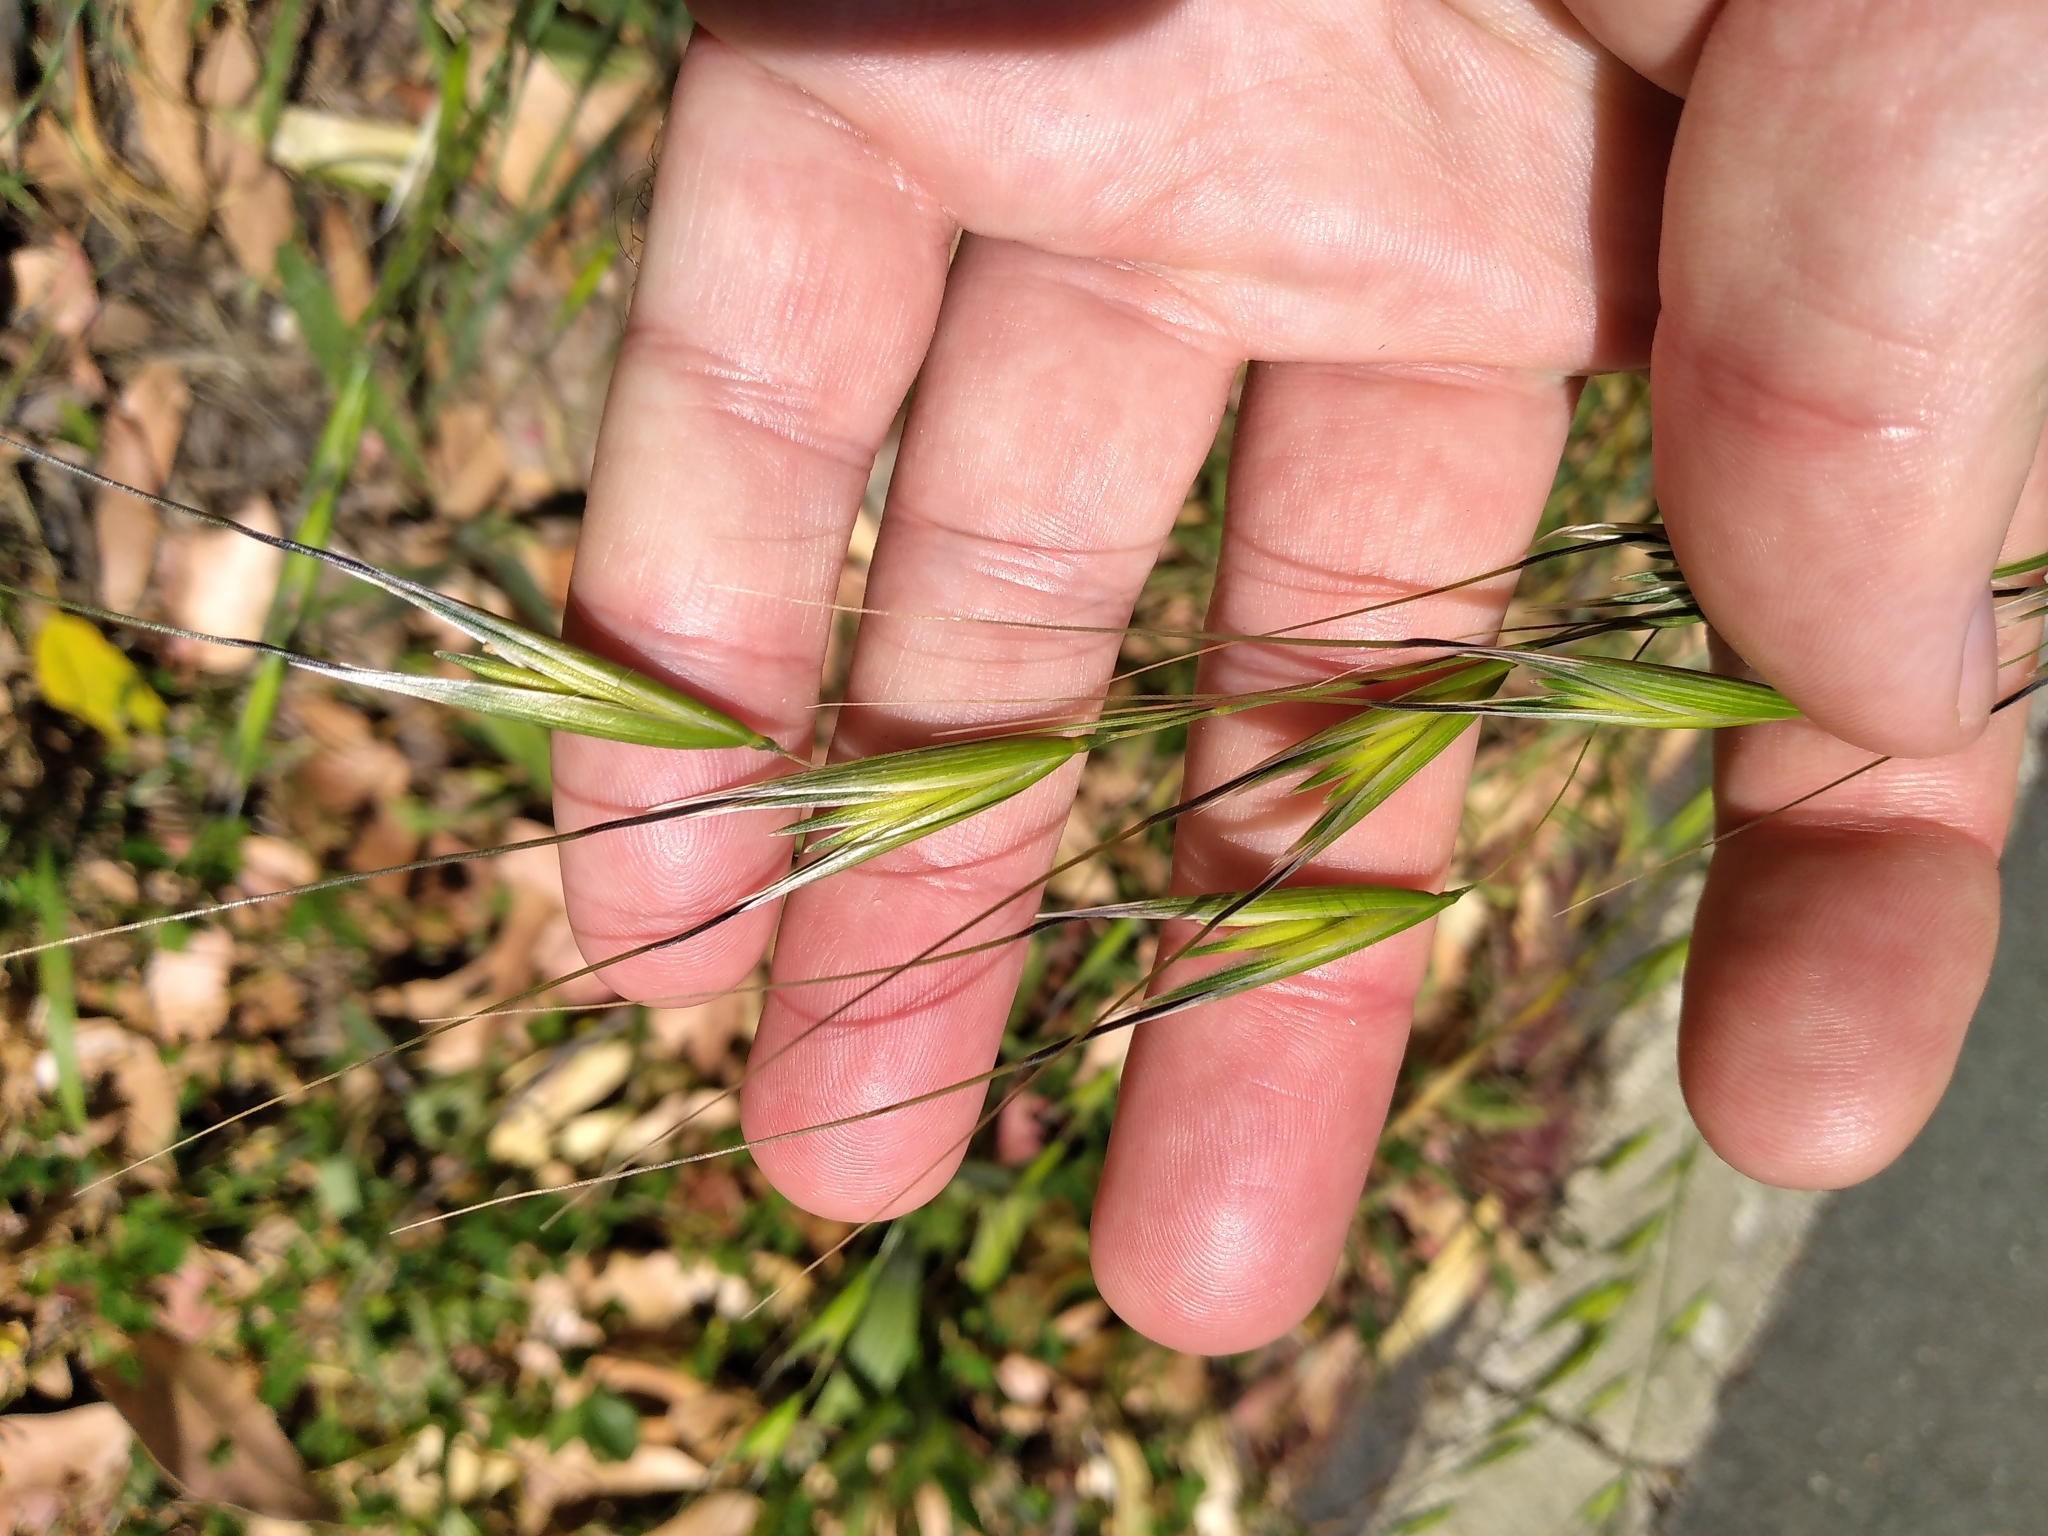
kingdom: Plantae
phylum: Tracheophyta
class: Liliopsida
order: Poales
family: Poaceae
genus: Avena
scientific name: Avena sterilis
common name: Animated oat
